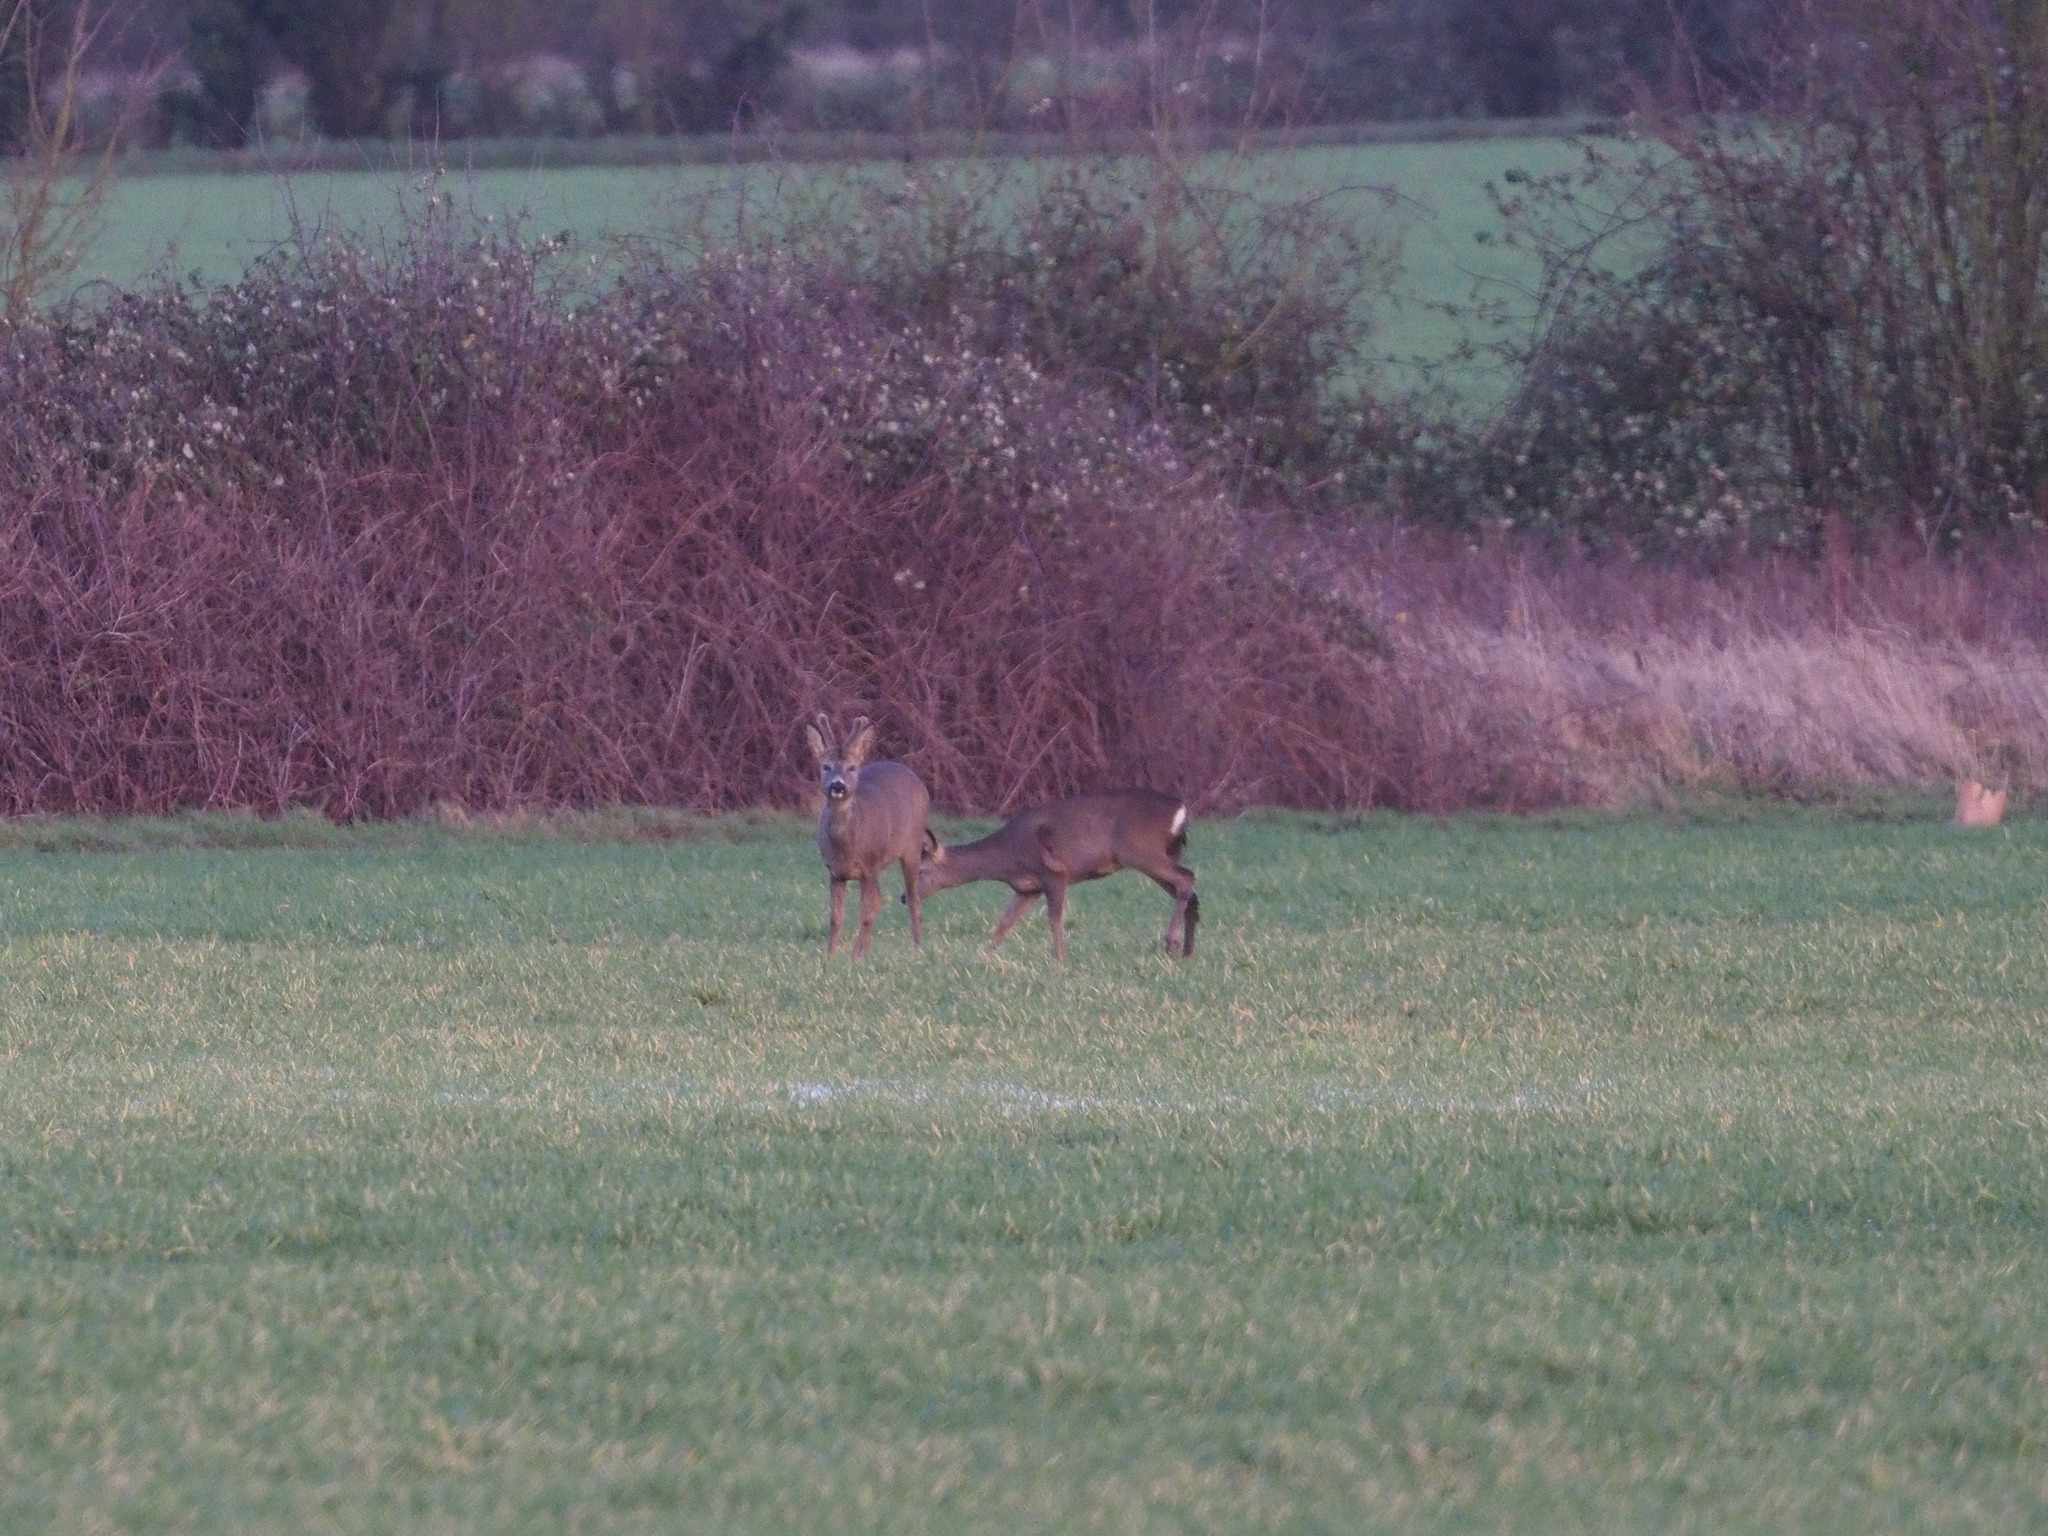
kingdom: Animalia
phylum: Chordata
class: Mammalia
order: Artiodactyla
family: Cervidae
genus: Capreolus
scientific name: Capreolus capreolus
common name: Western roe deer
